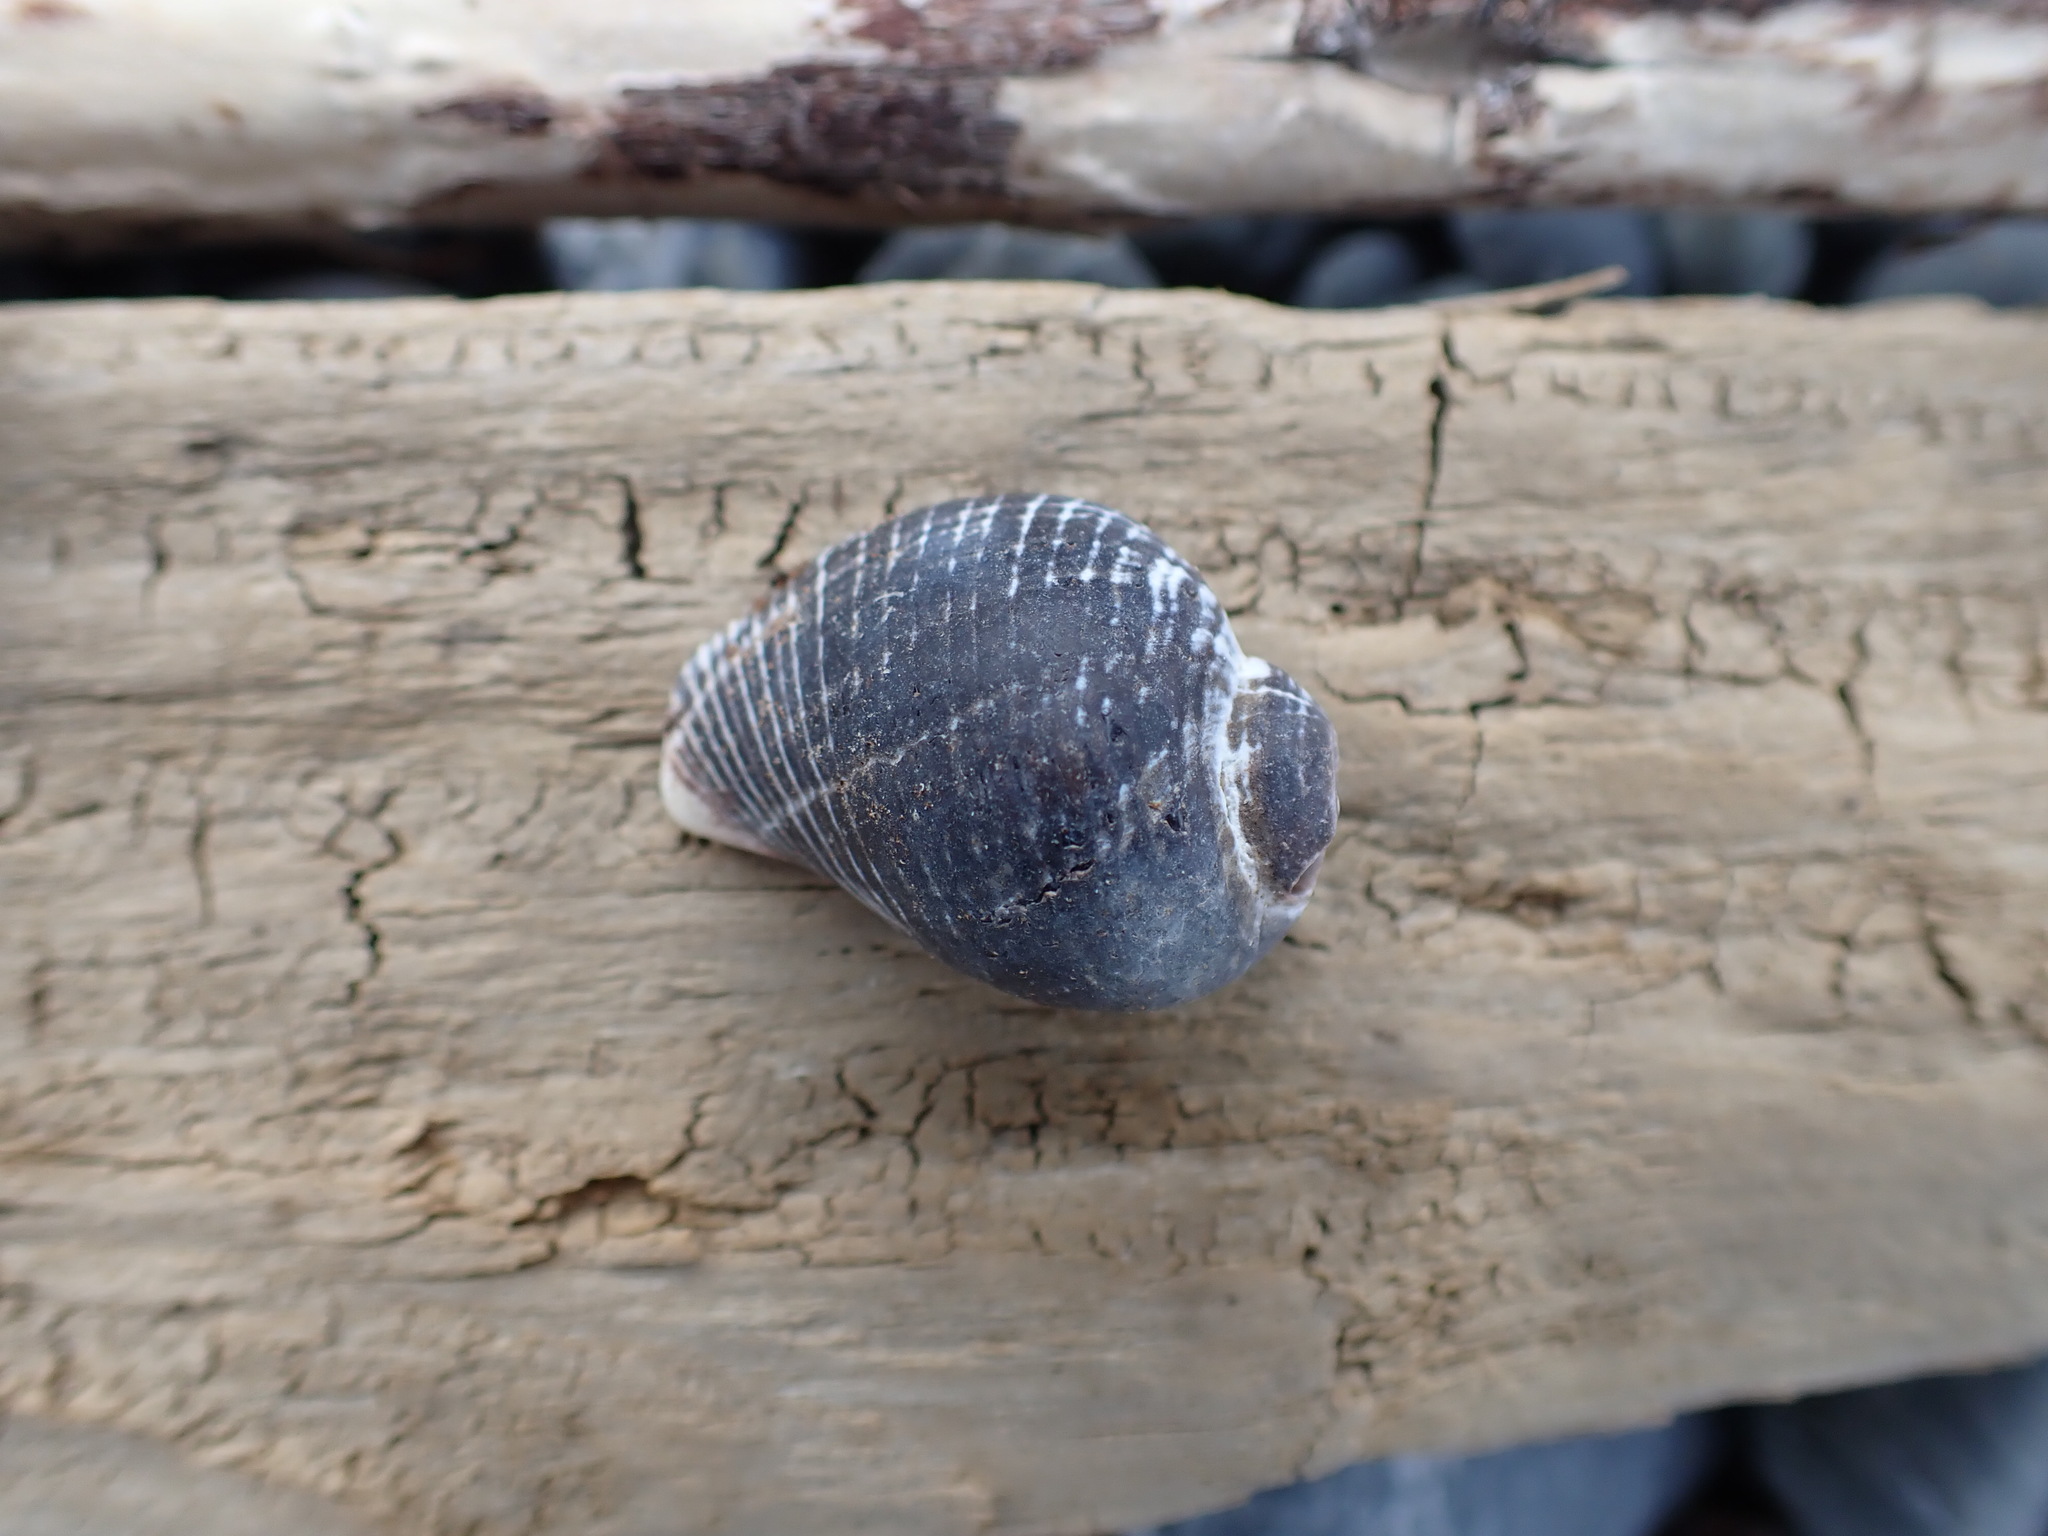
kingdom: Animalia
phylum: Mollusca
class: Gastropoda
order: Neogastropoda
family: Muricidae
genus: Haustrum
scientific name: Haustrum haustorium
